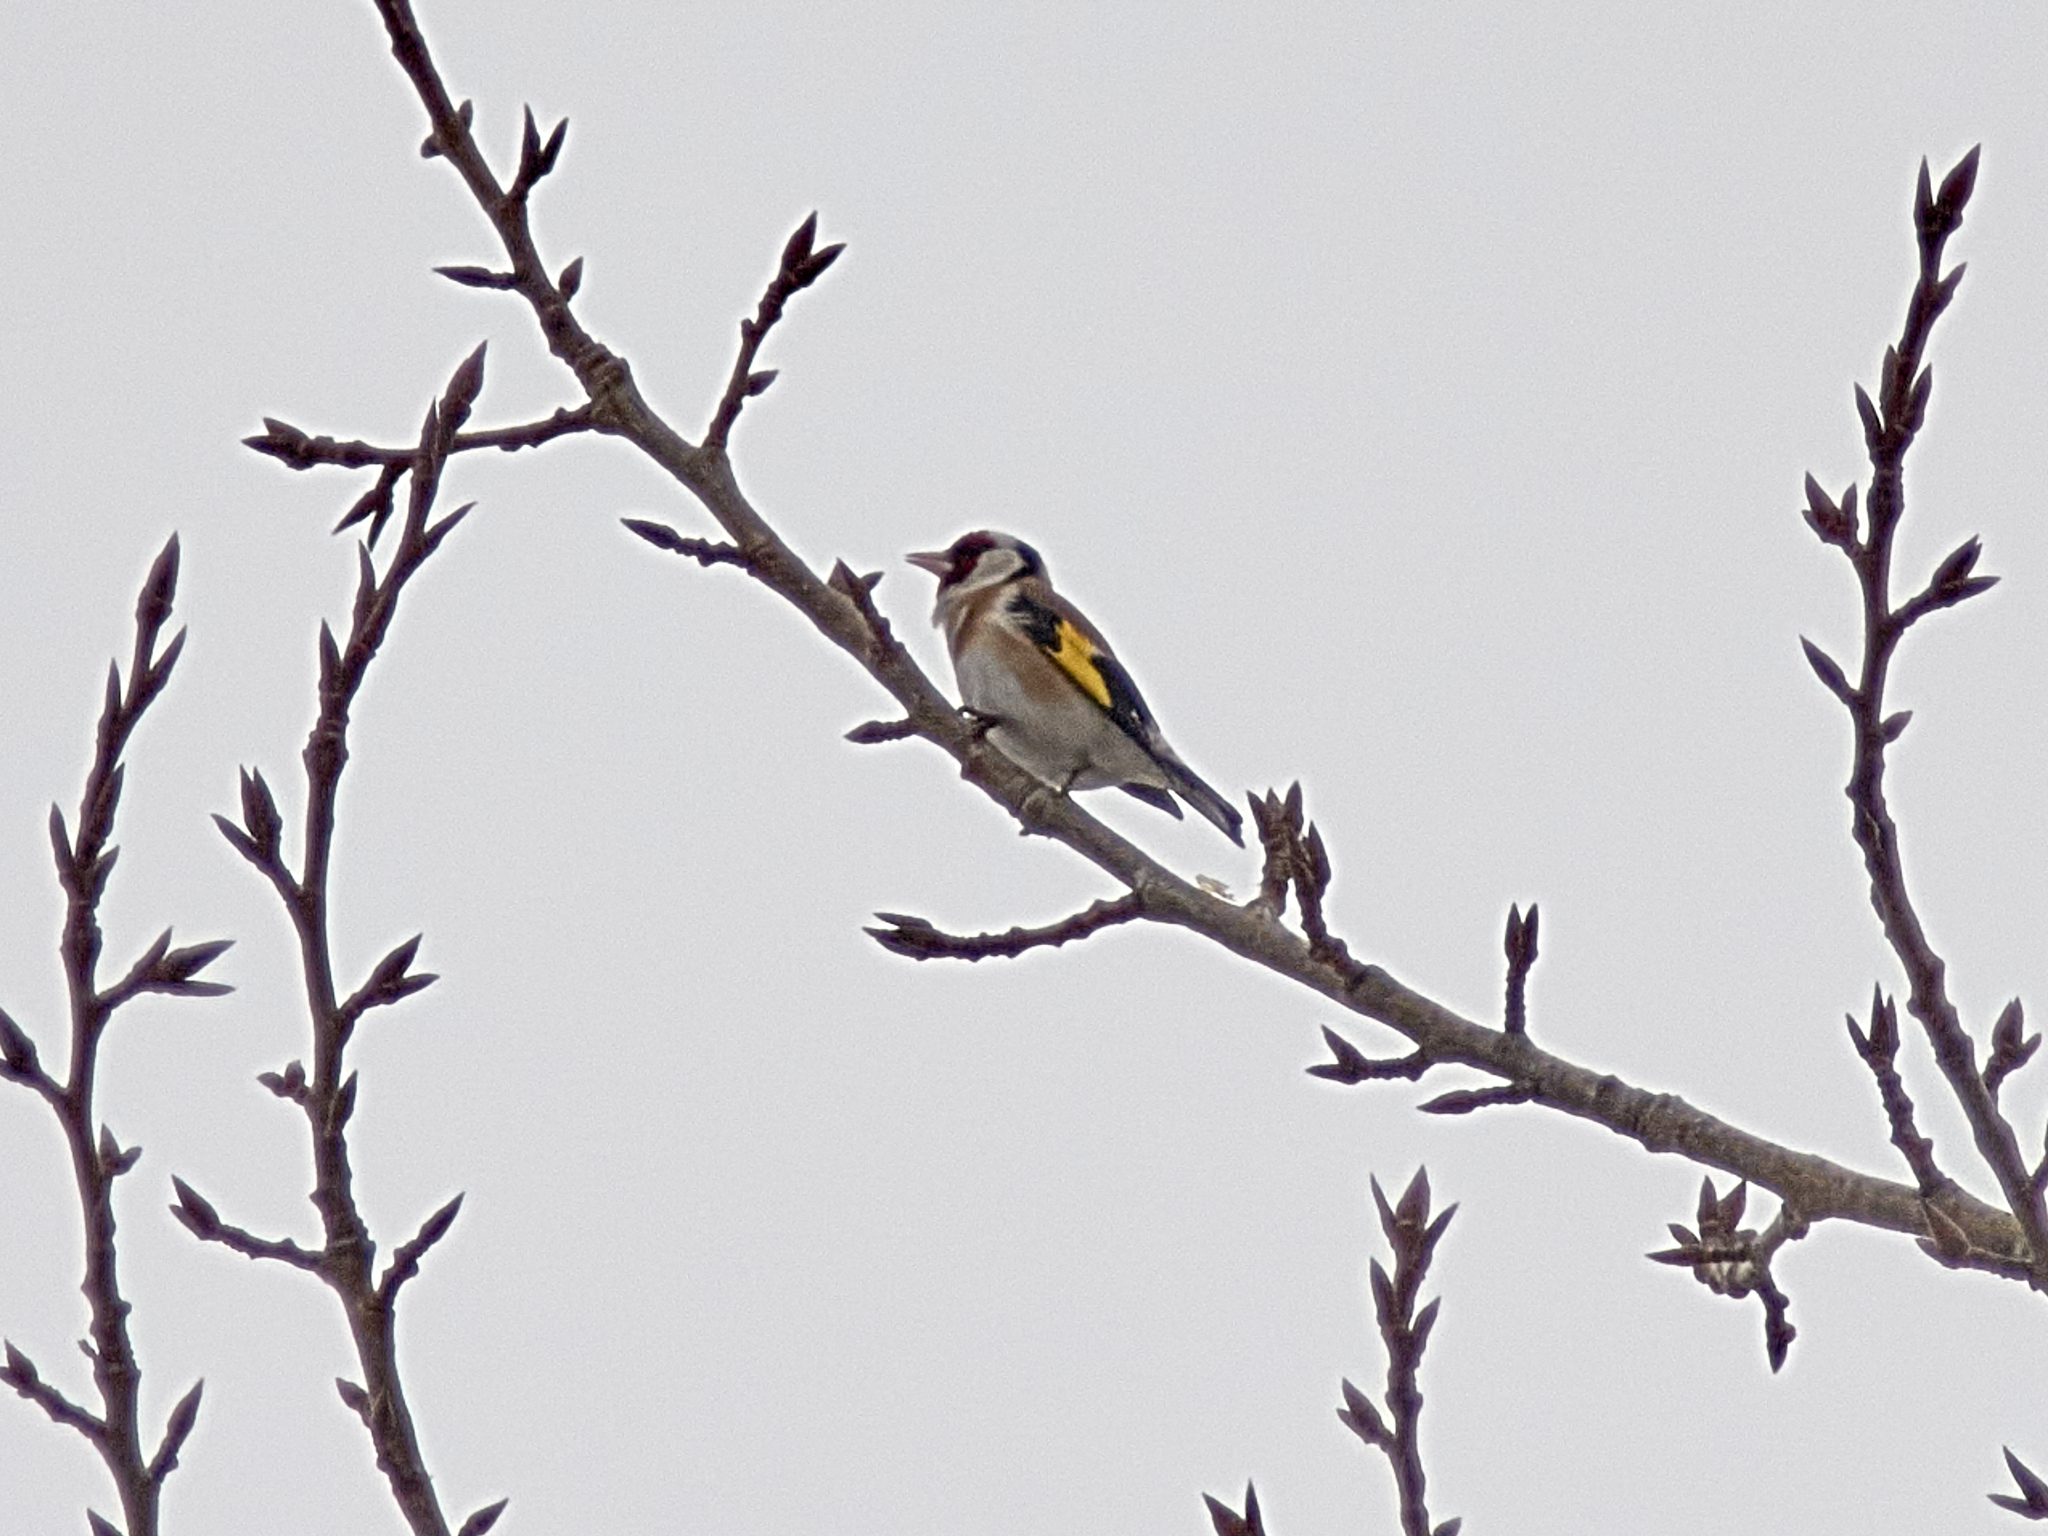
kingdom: Animalia
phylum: Chordata
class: Aves
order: Passeriformes
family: Fringillidae
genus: Carduelis
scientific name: Carduelis carduelis
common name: European goldfinch
